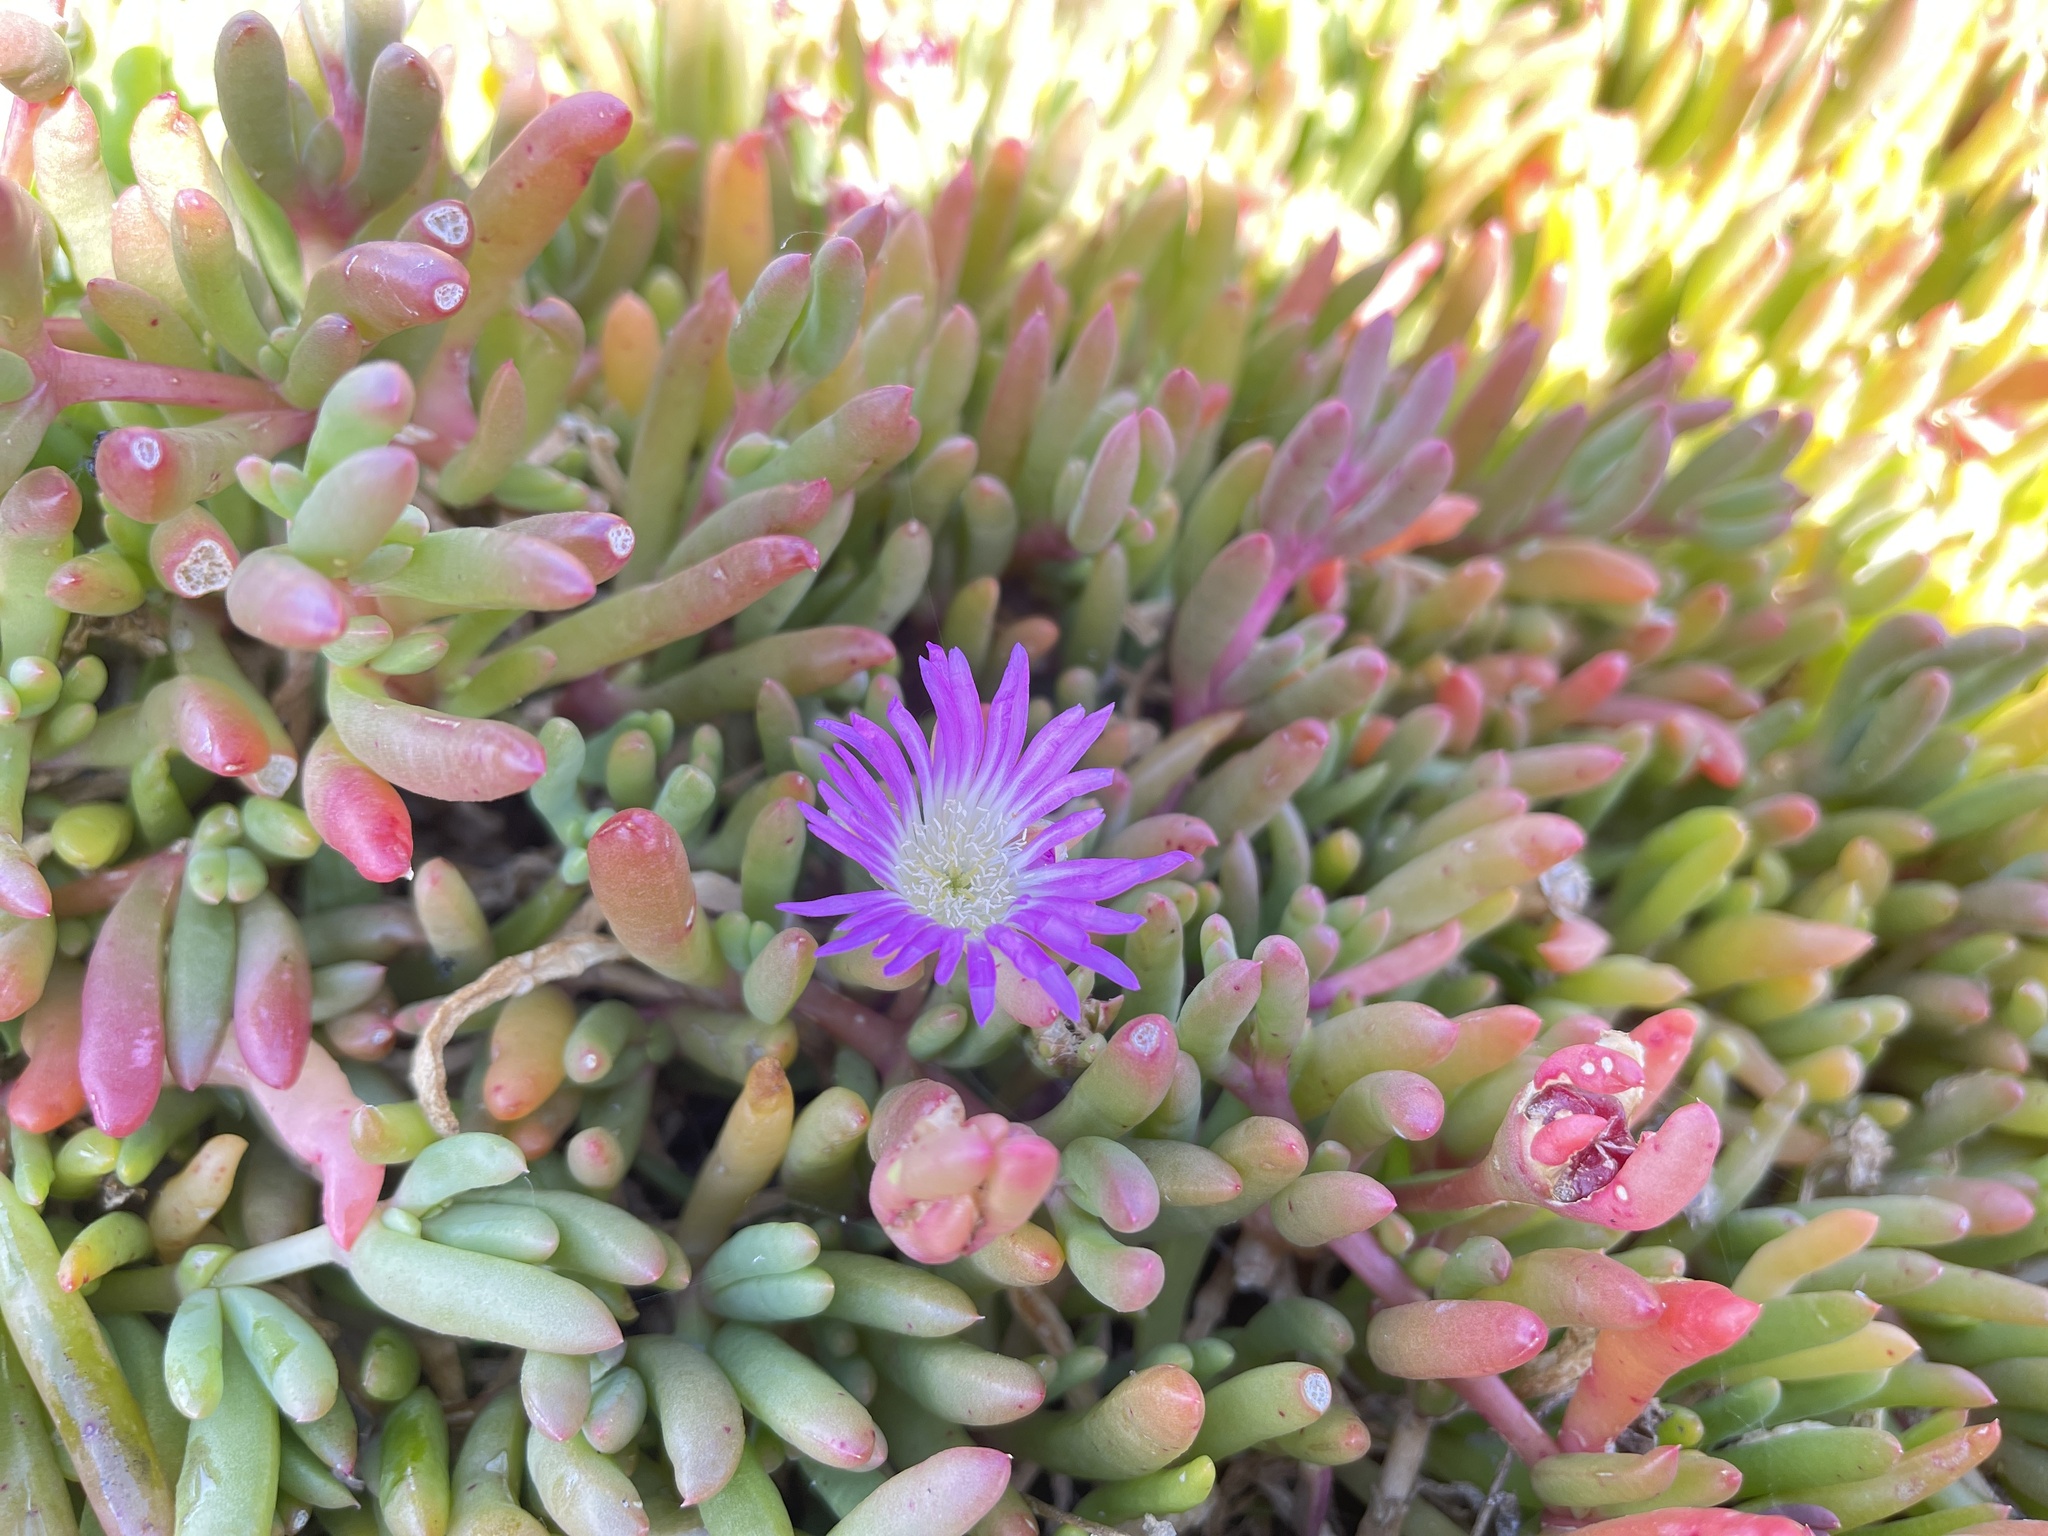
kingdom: Plantae
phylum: Tracheophyta
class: Magnoliopsida
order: Caryophyllales
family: Aizoaceae
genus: Disphyma
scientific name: Disphyma clavellatum
